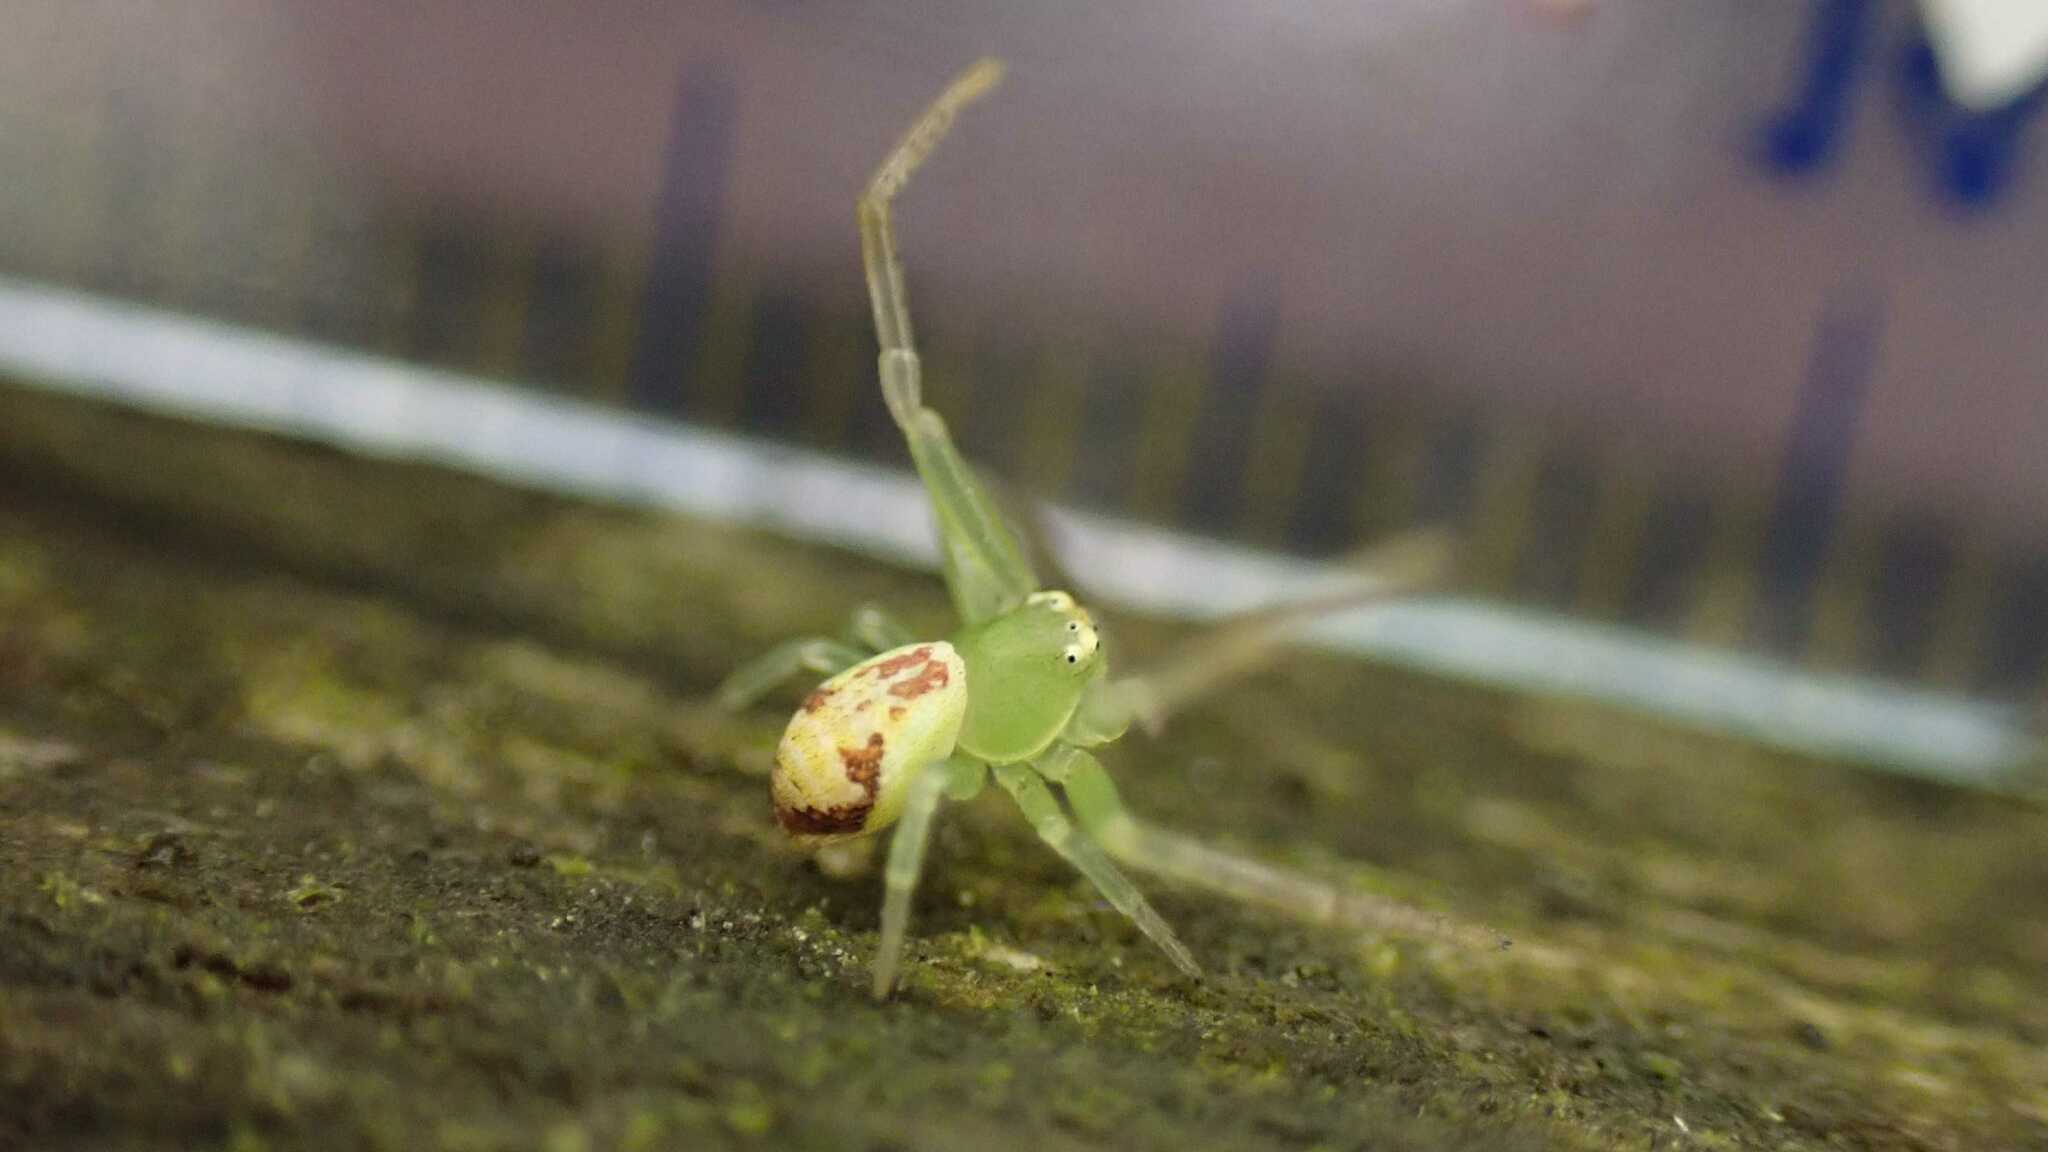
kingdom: Animalia
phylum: Arthropoda
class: Arachnida
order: Araneae
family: Thomisidae
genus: Ebrechtella
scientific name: Ebrechtella tricuspidata
